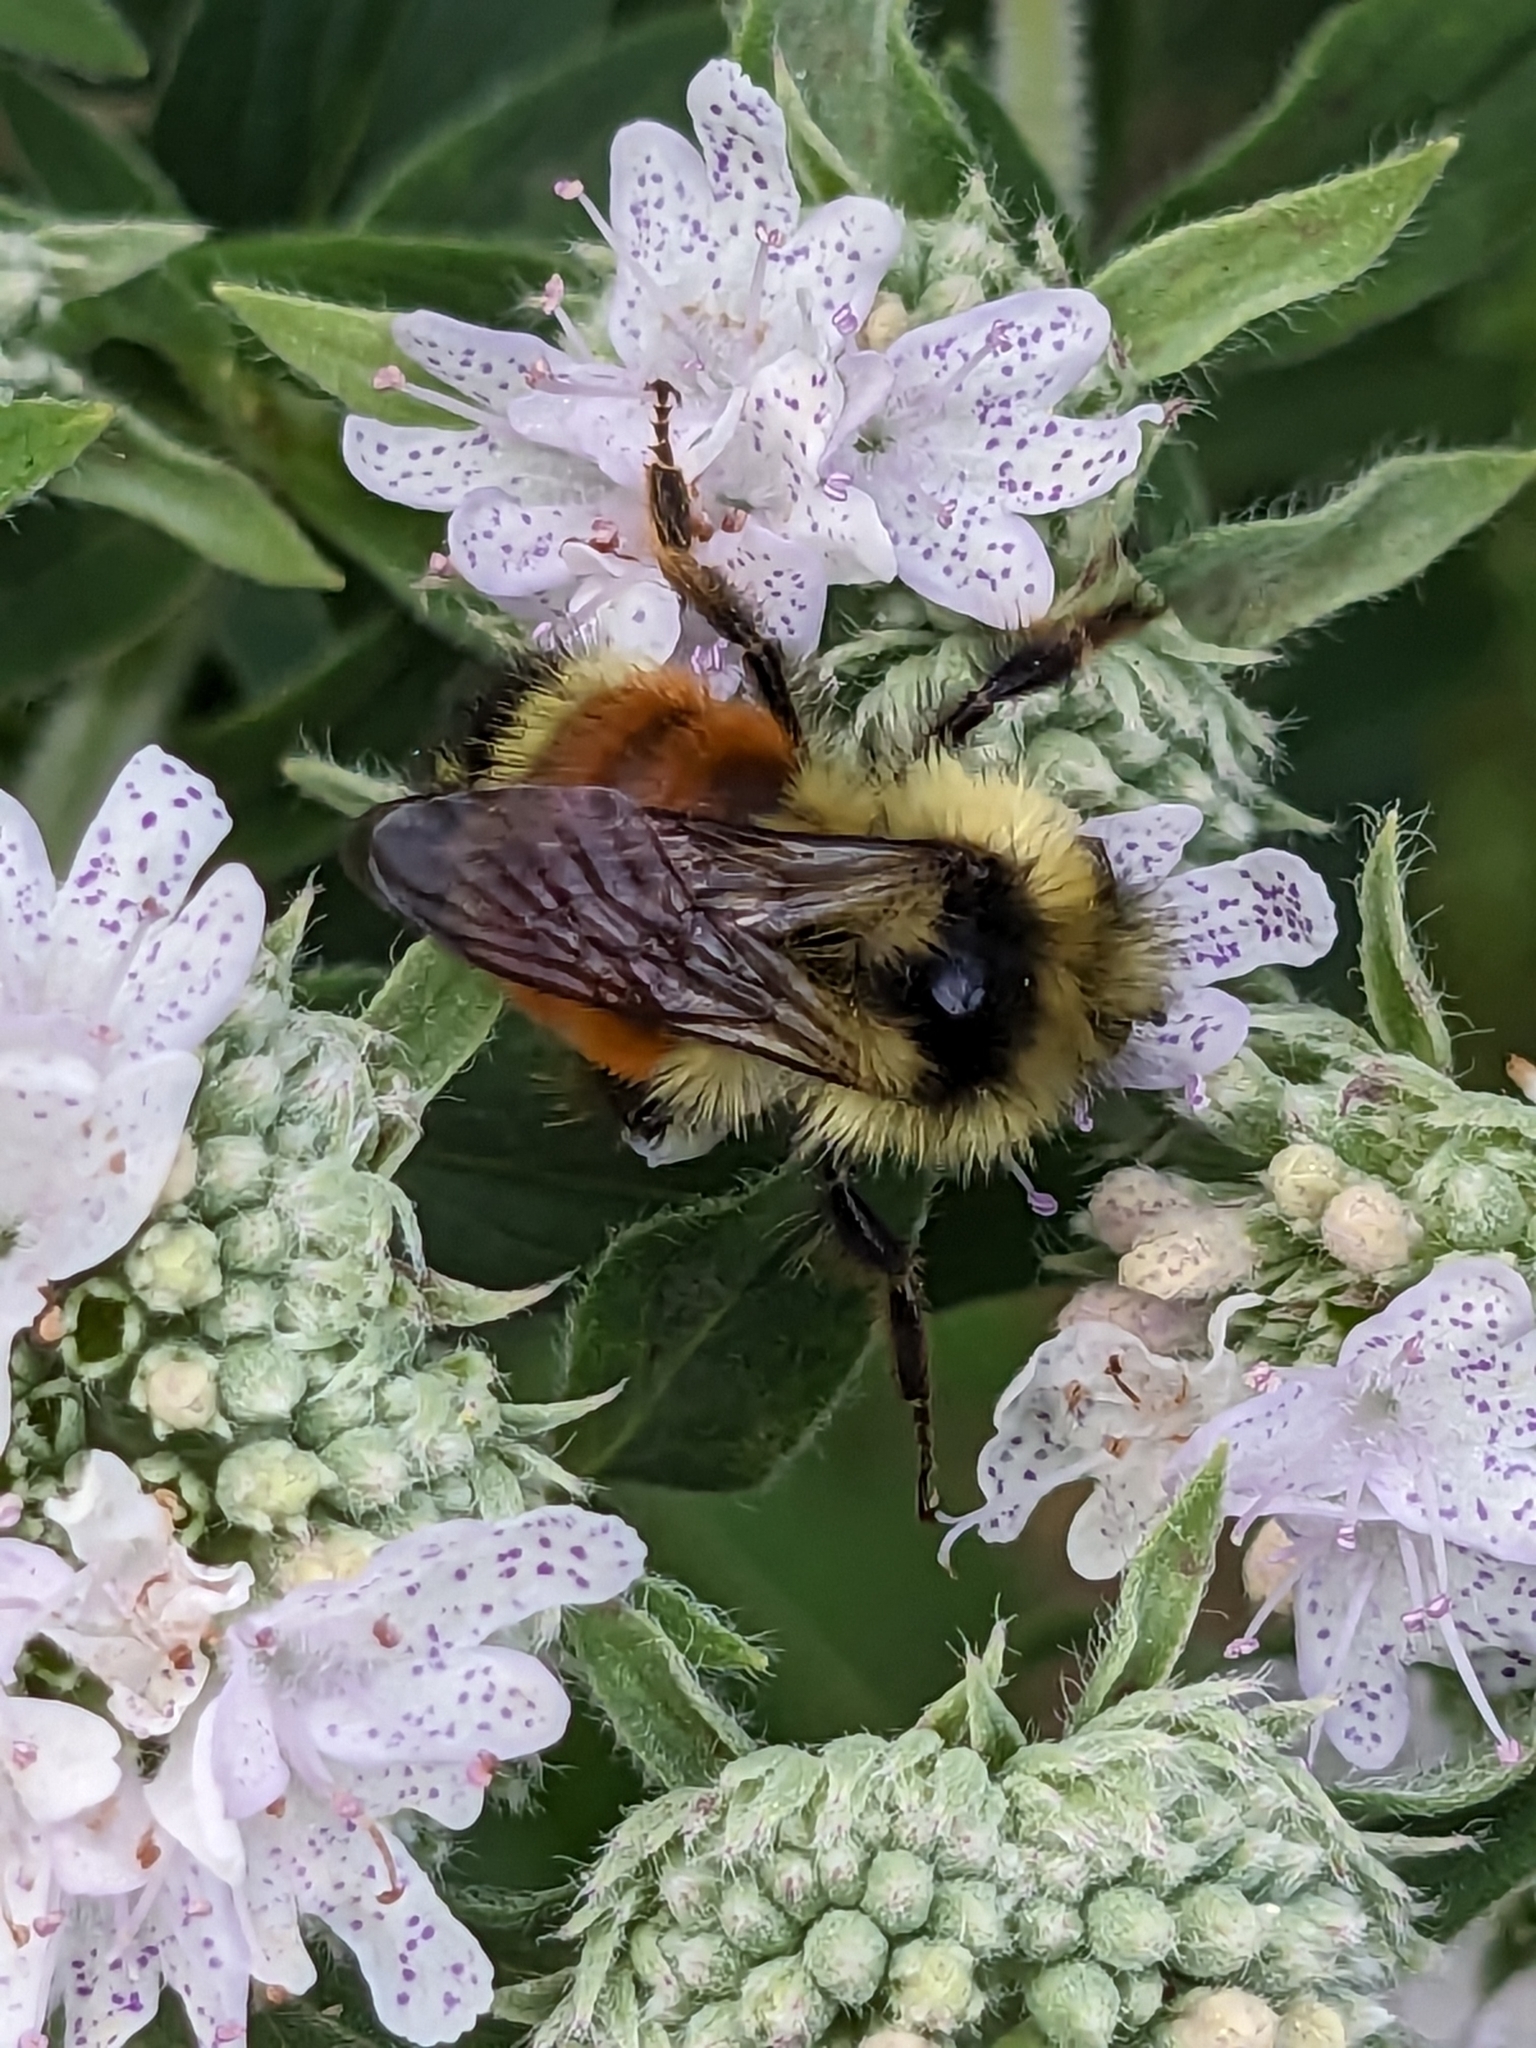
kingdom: Animalia
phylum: Arthropoda
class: Insecta
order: Hymenoptera
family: Apidae
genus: Bombus
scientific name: Bombus ternarius
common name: Tri-colored bumble bee
